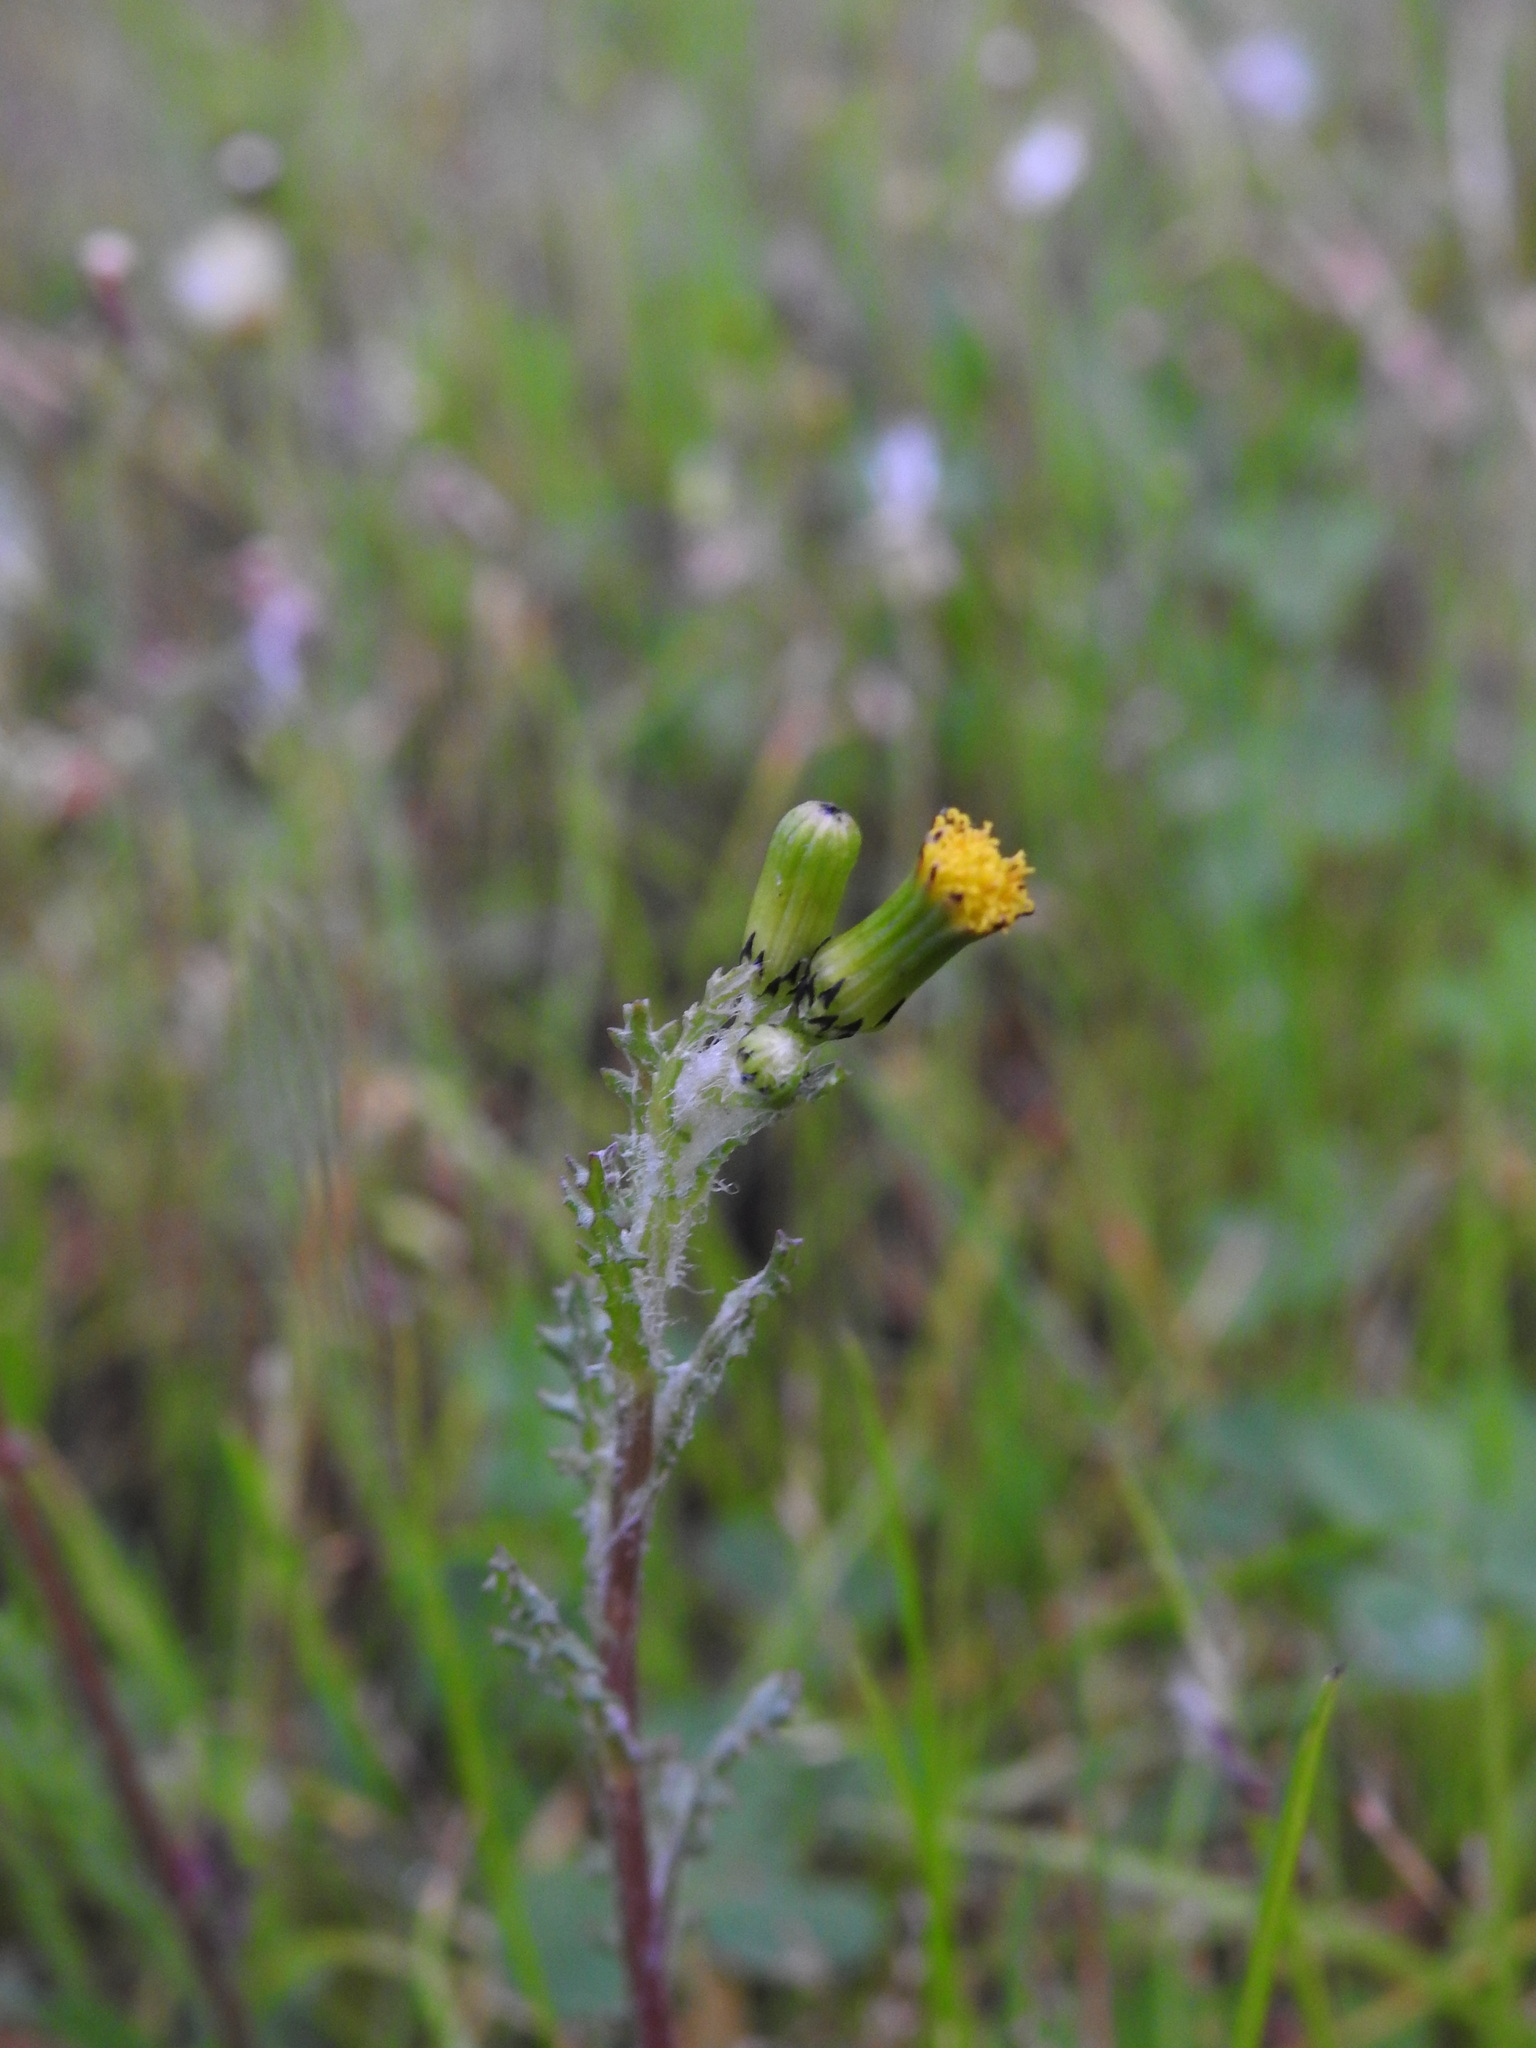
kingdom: Plantae
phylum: Tracheophyta
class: Magnoliopsida
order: Asterales
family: Asteraceae
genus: Senecio
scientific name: Senecio vulgaris
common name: Old-man-in-the-spring
